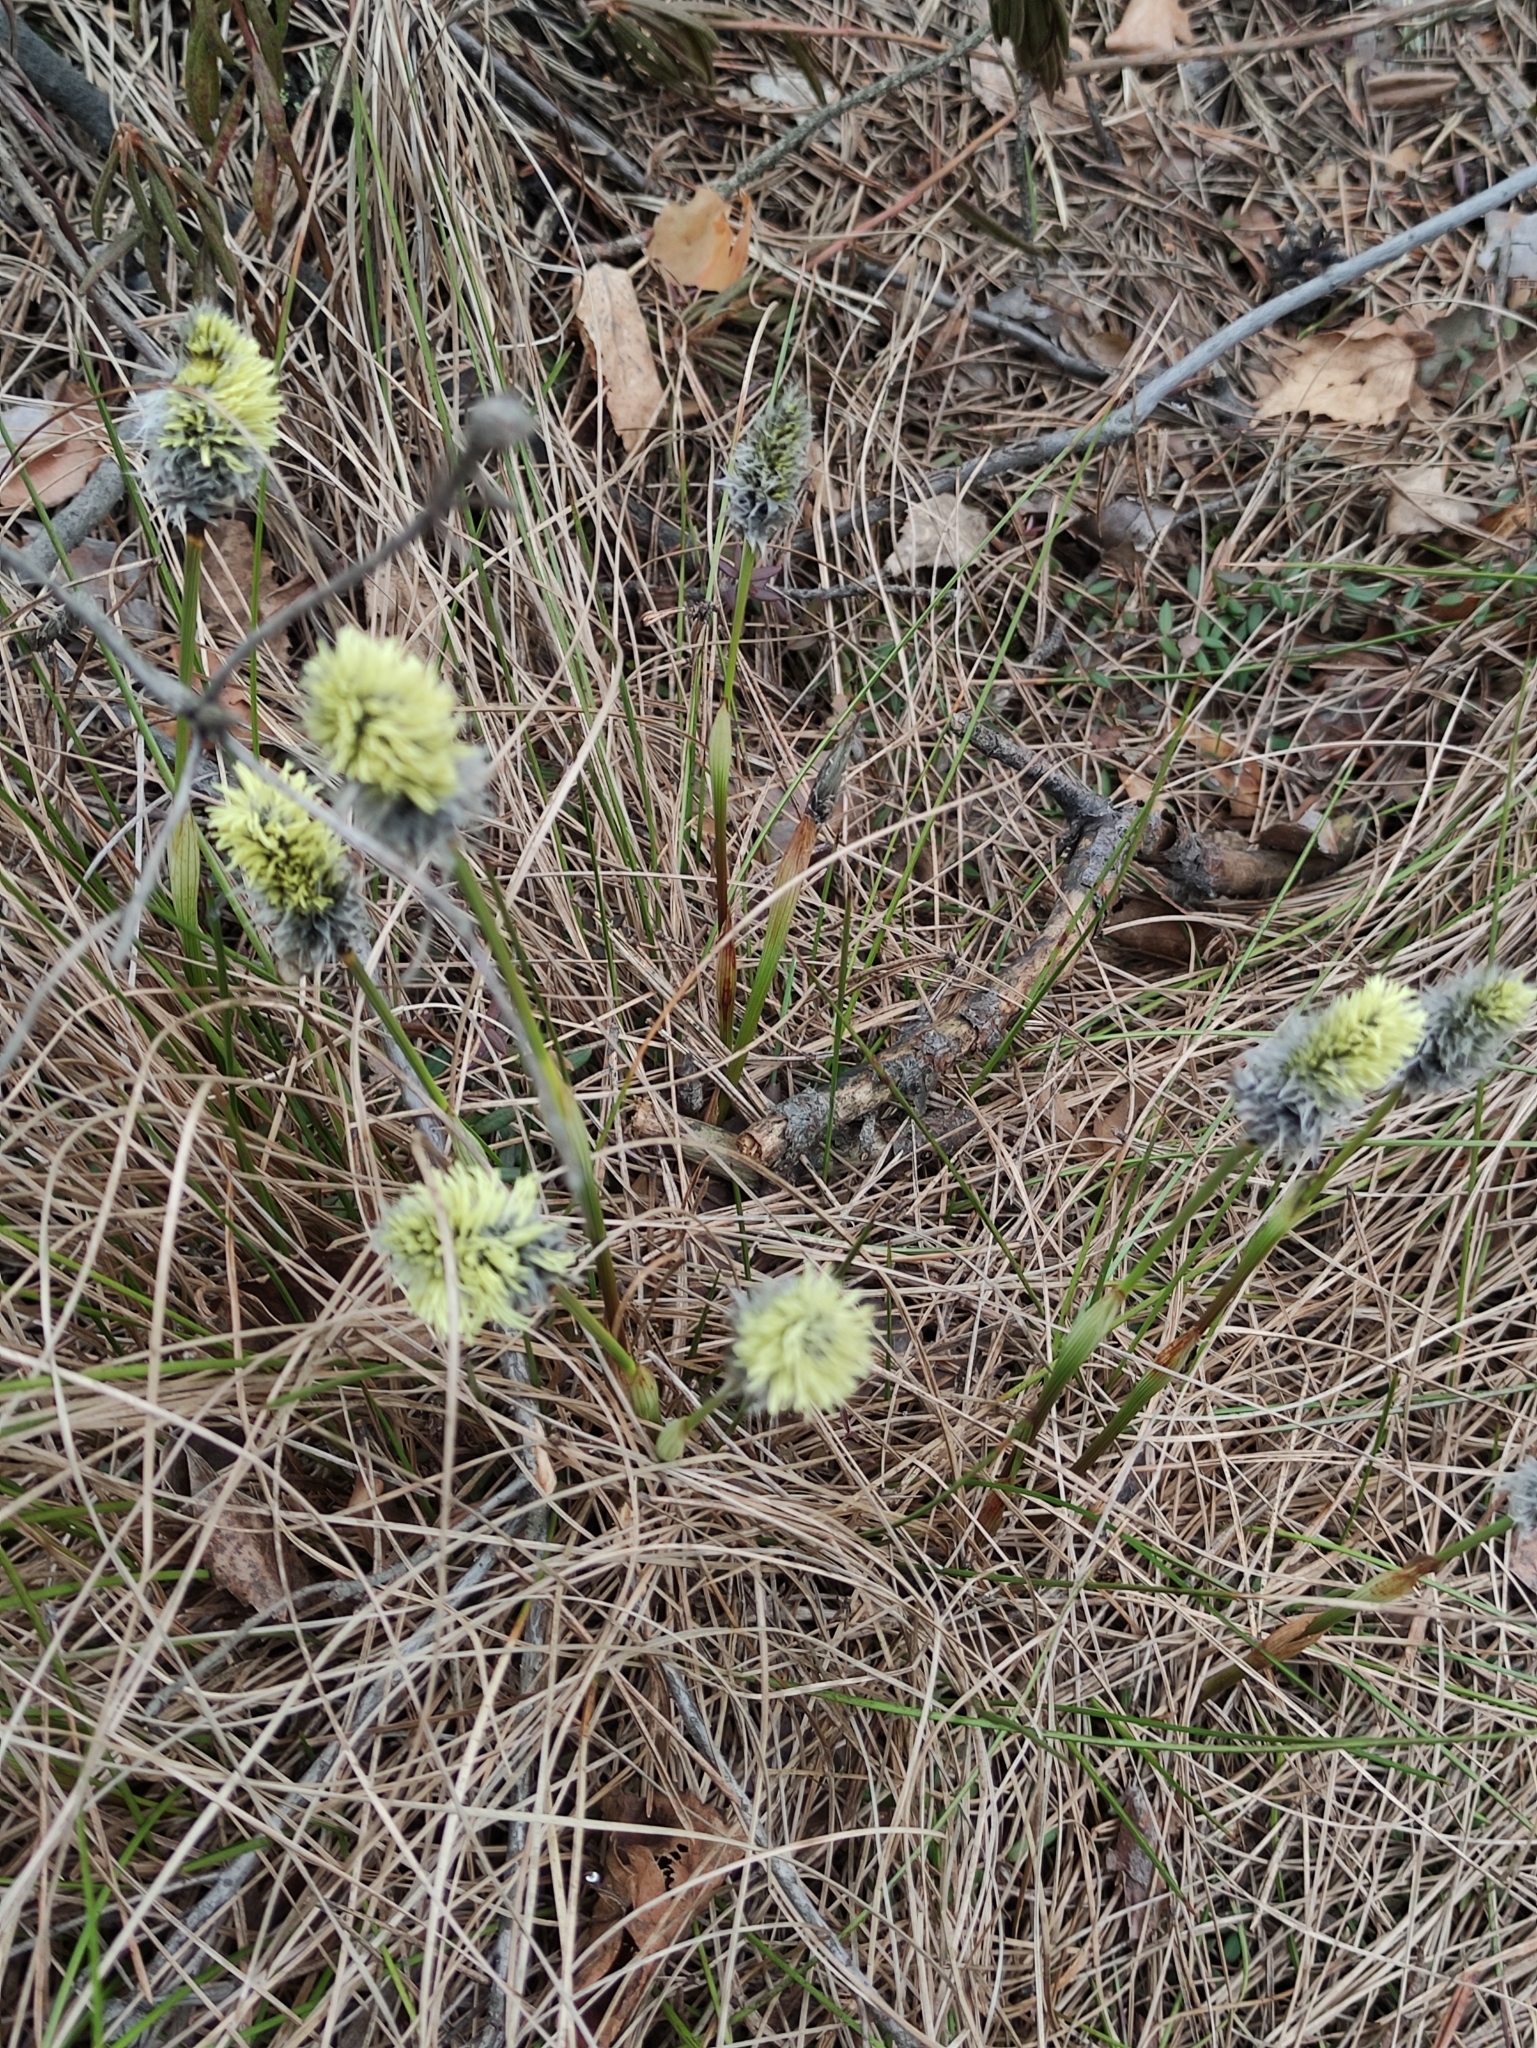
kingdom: Plantae
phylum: Tracheophyta
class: Liliopsida
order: Poales
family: Cyperaceae
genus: Eriophorum
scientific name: Eriophorum vaginatum
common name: Hare's-tail cottongrass
